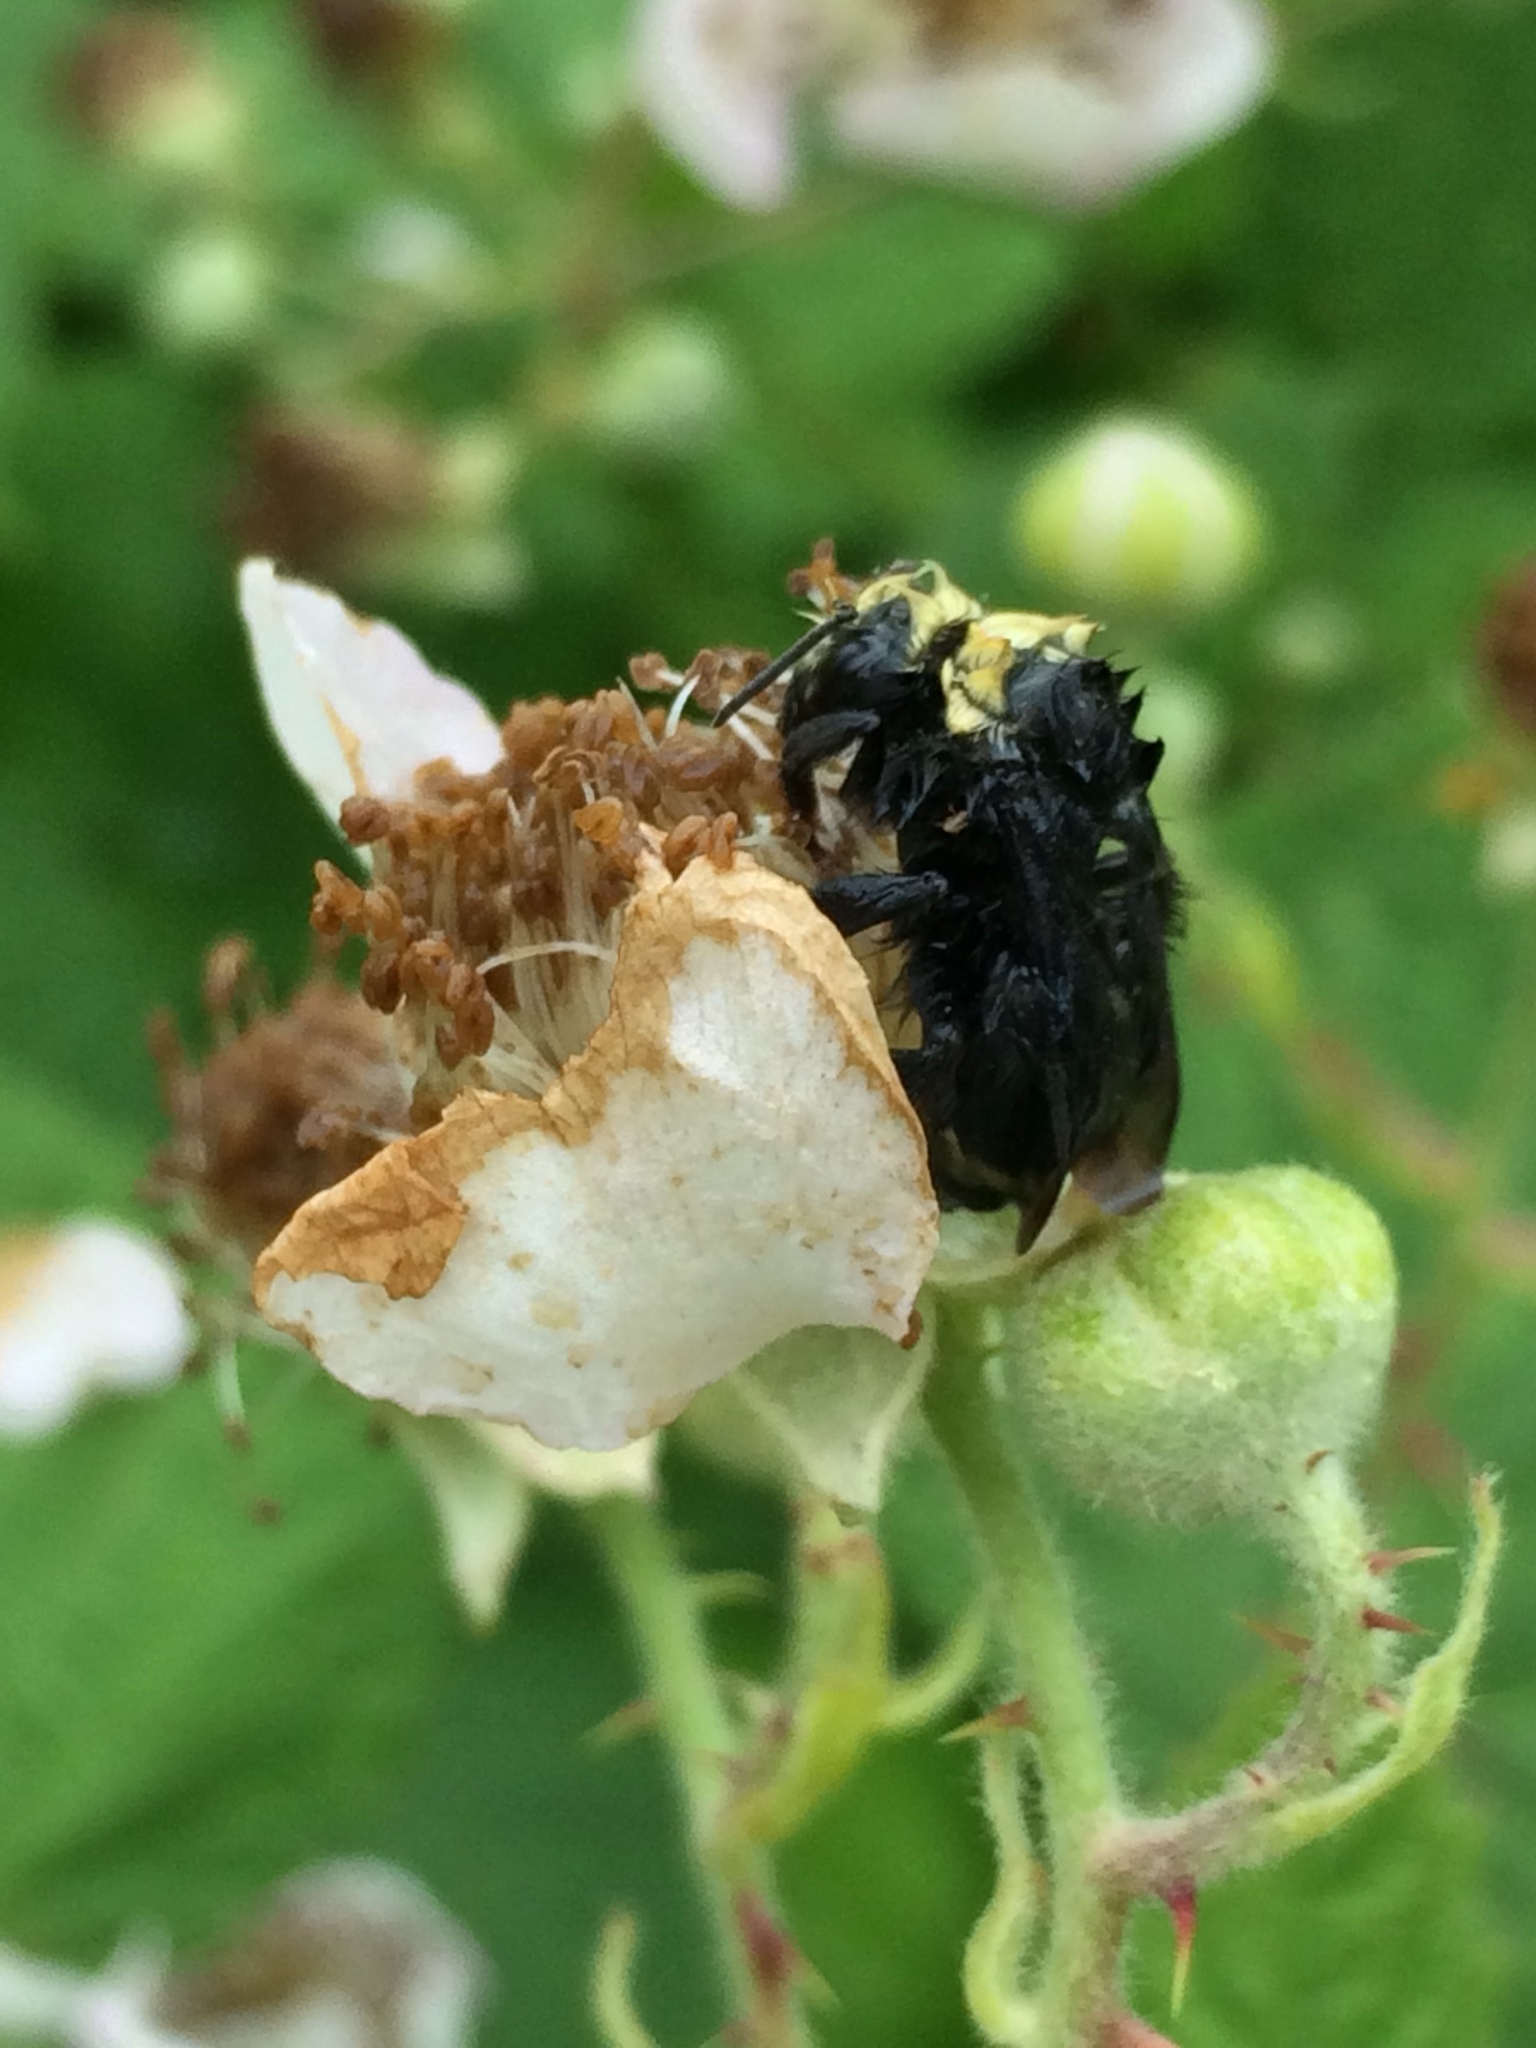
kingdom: Animalia
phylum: Arthropoda
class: Insecta
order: Hymenoptera
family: Apidae
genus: Bombus
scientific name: Bombus vosnesenskii
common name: Vosnesensky bumble bee
